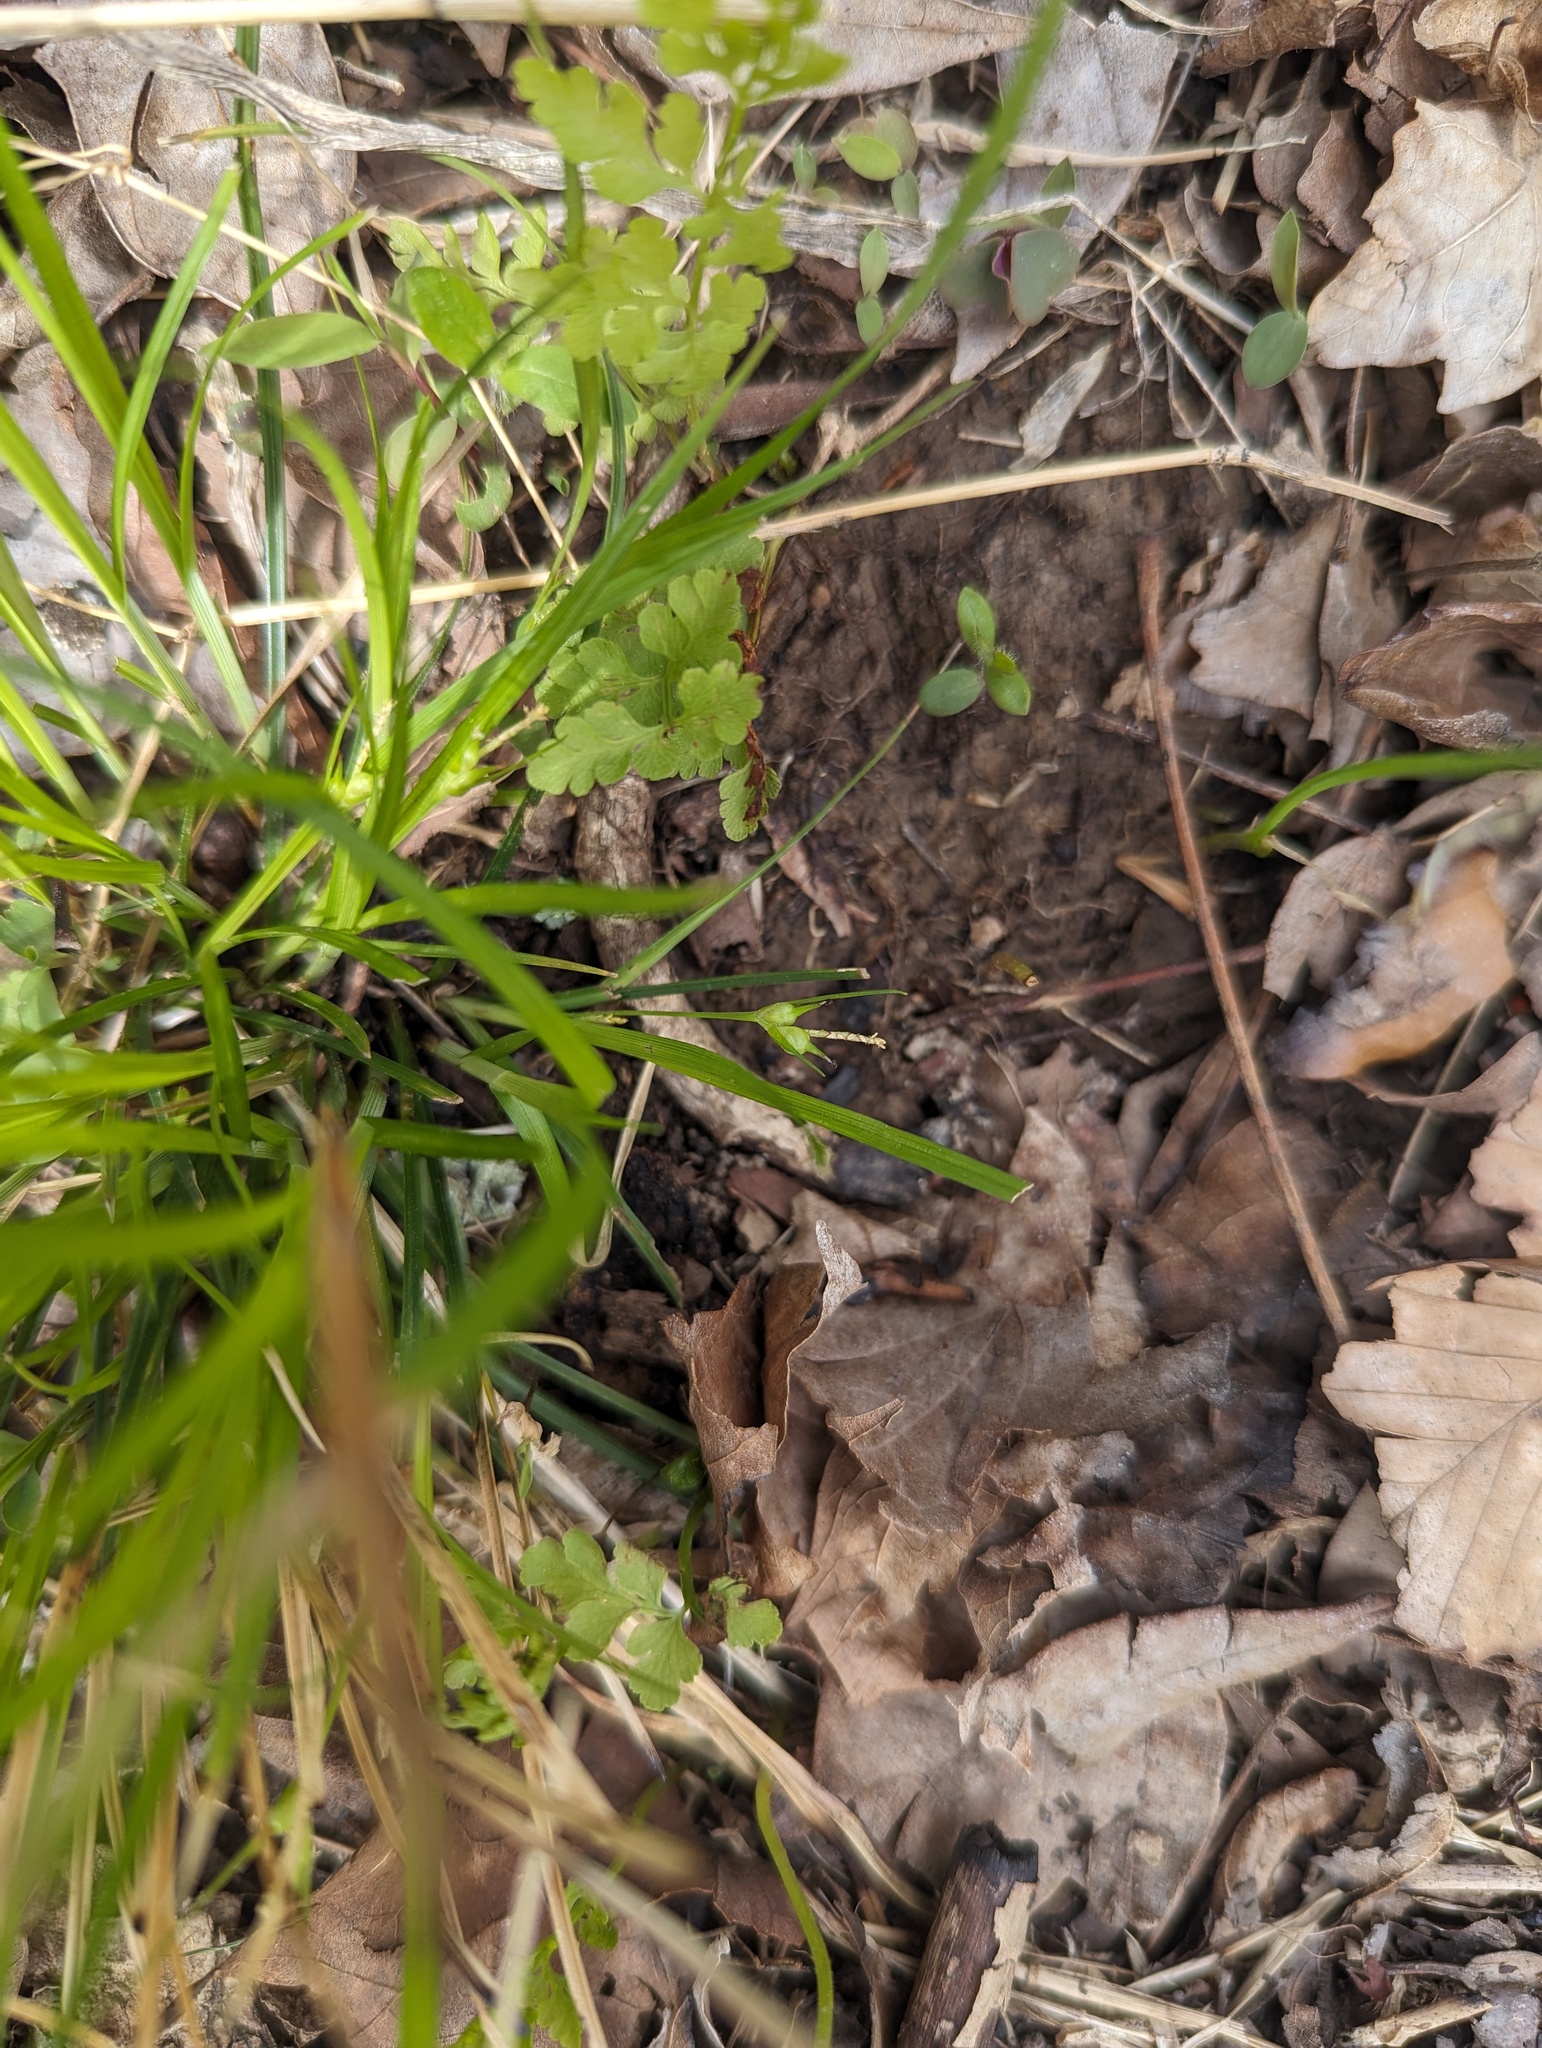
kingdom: Plantae
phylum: Tracheophyta
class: Liliopsida
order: Poales
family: Cyperaceae
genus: Carex
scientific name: Carex jamesii
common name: Grass sedge
